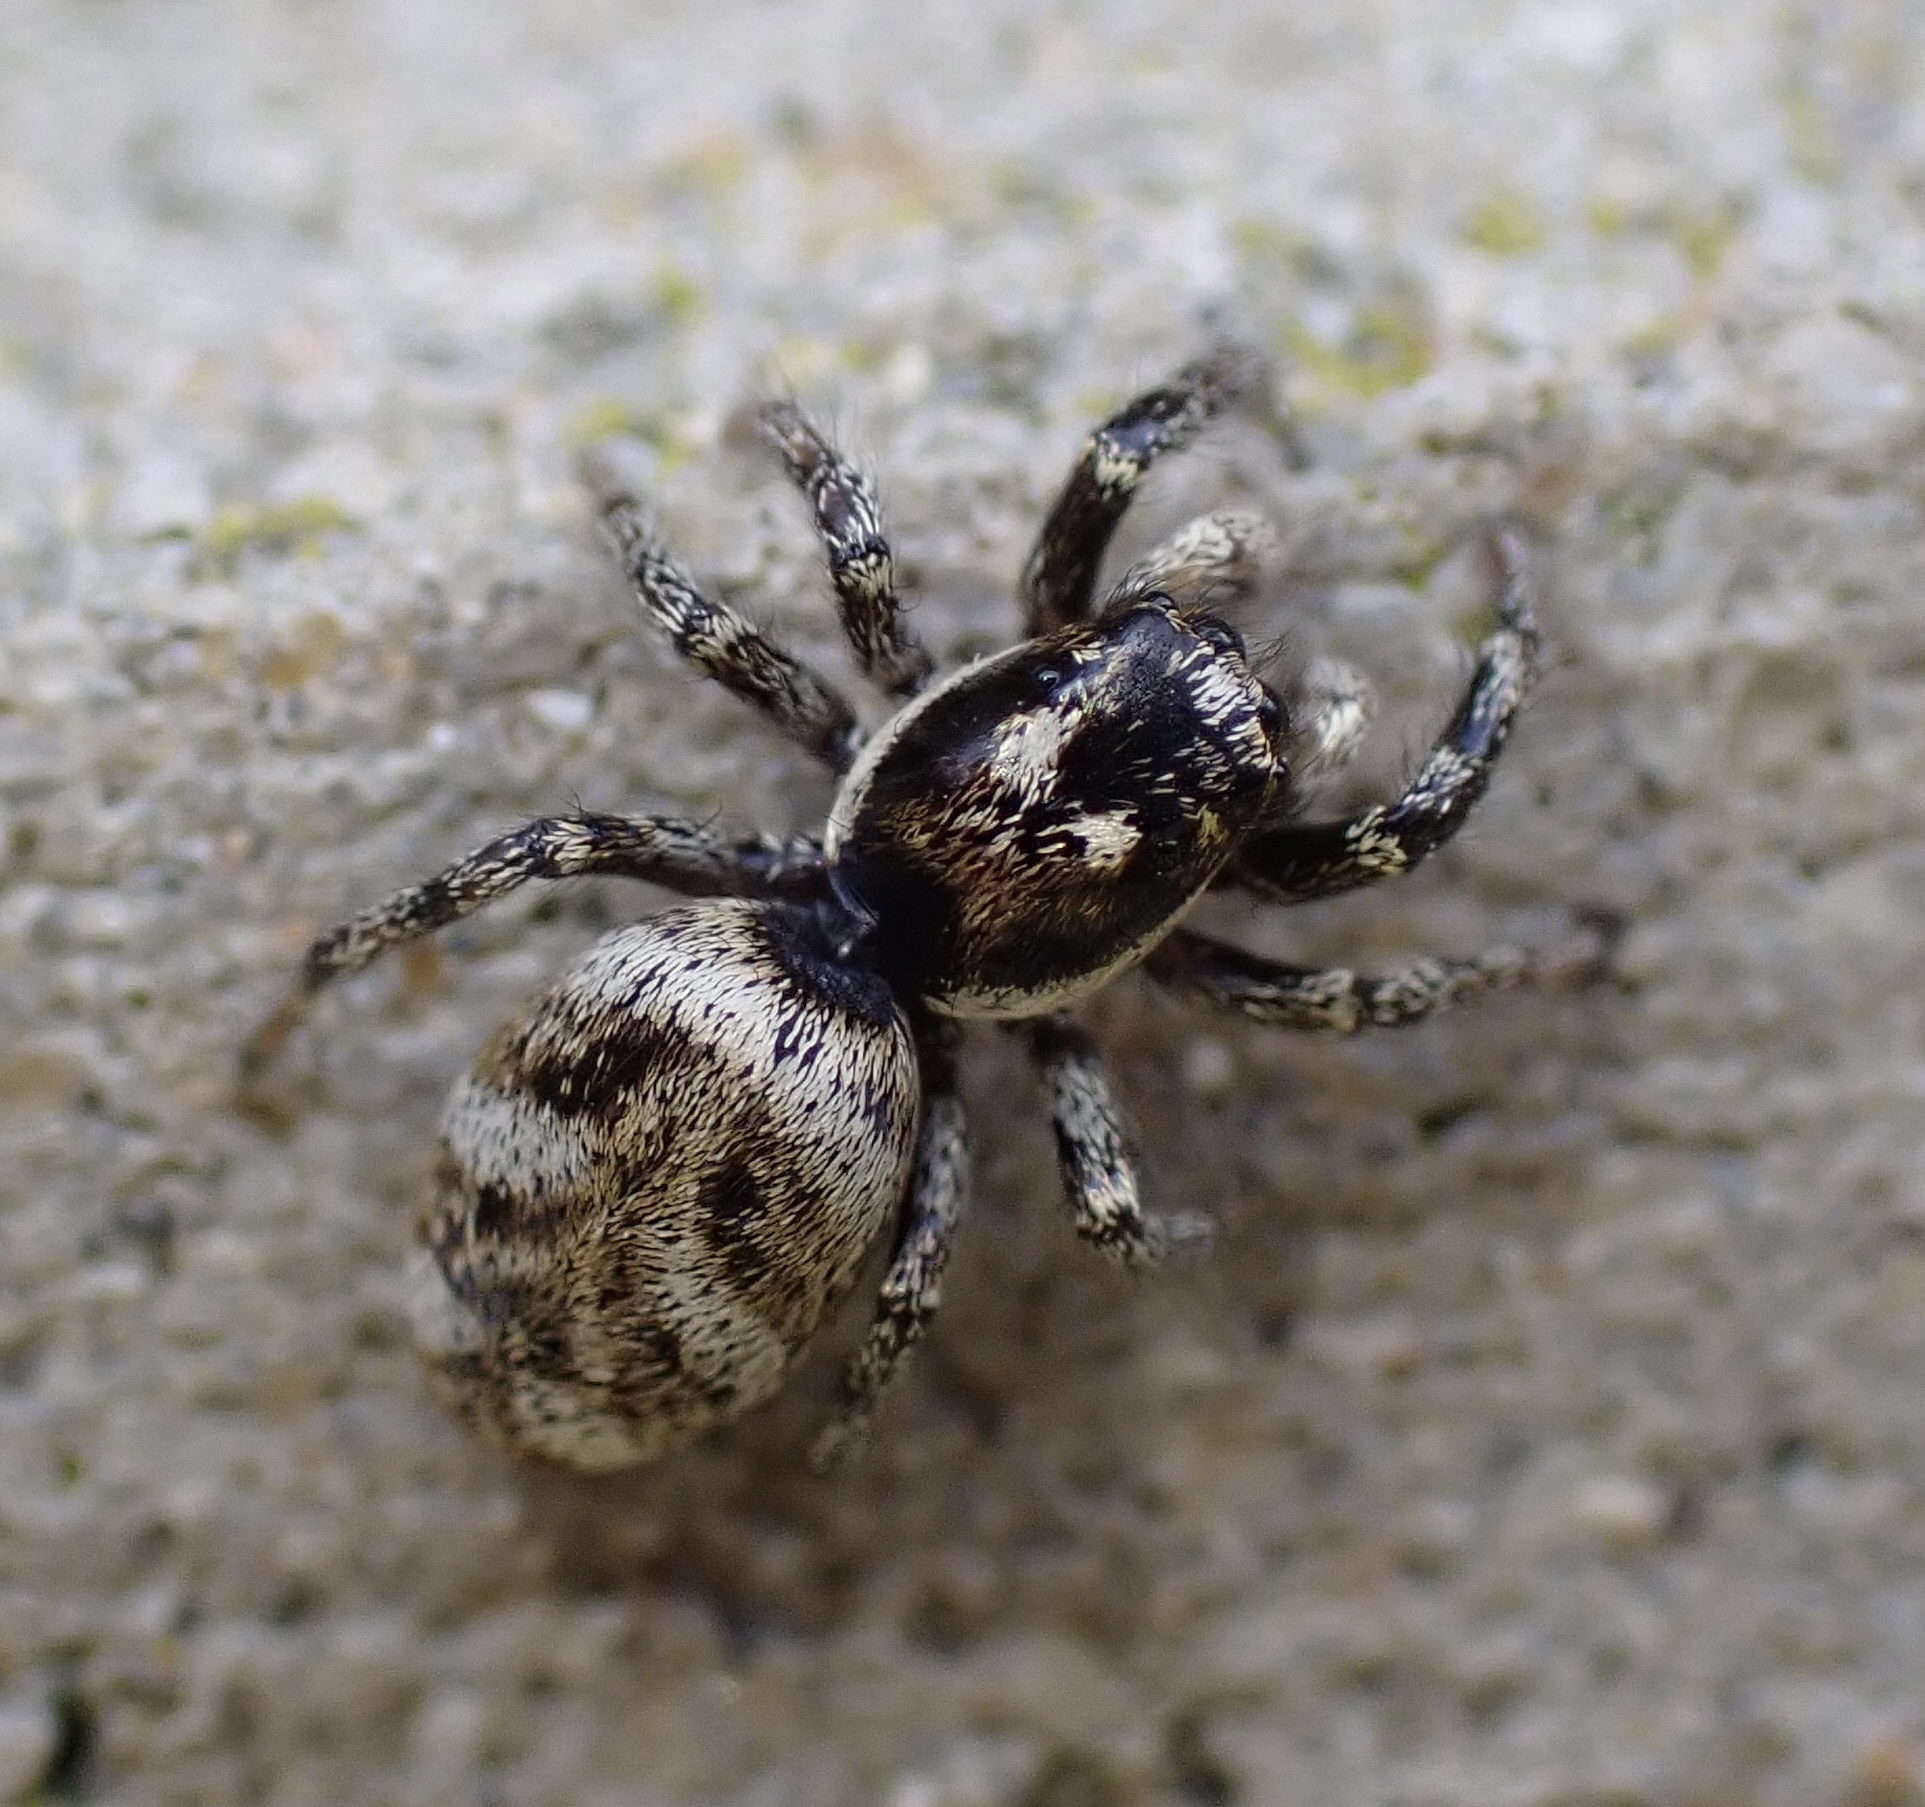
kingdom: Animalia
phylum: Arthropoda
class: Arachnida
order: Araneae
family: Salticidae
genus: Salticus
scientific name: Salticus scenicus
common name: Zebra jumper
